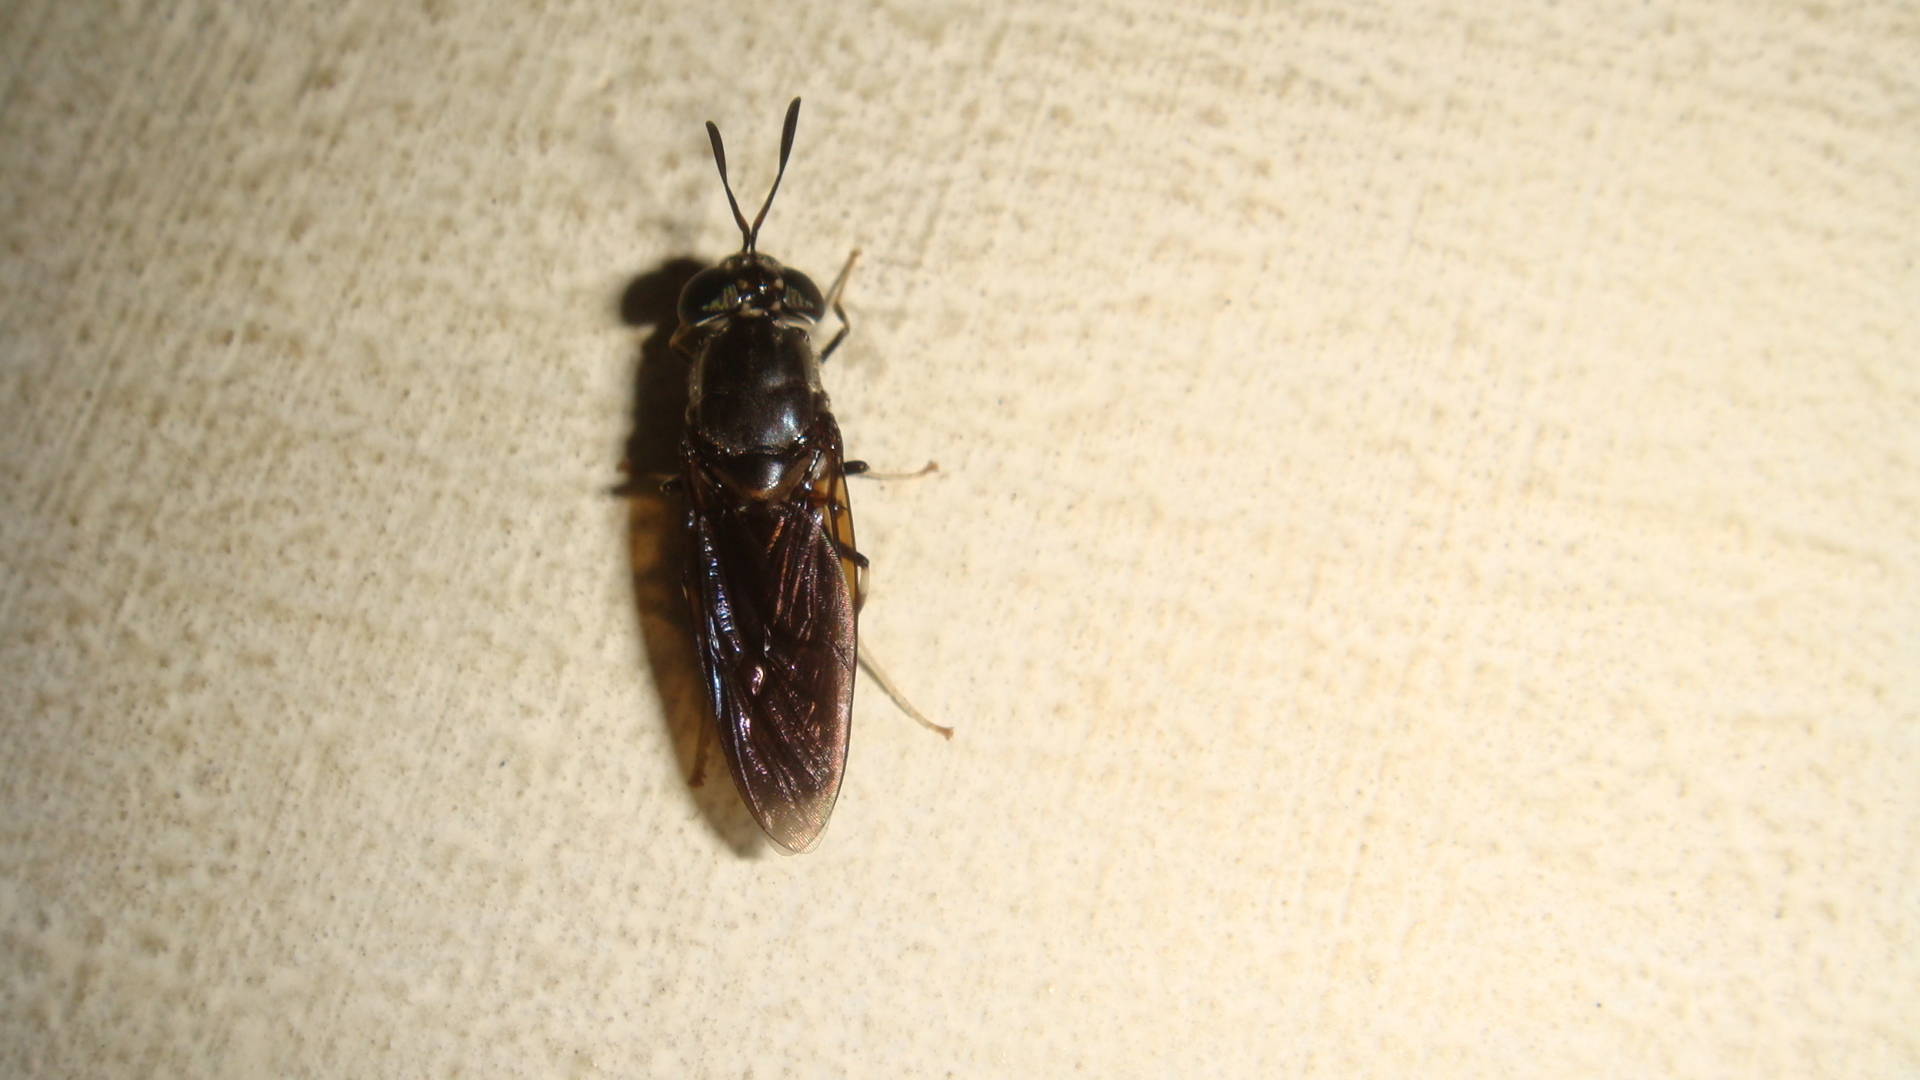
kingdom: Animalia
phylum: Arthropoda
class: Insecta
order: Diptera
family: Stratiomyidae
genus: Hermetia
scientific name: Hermetia illucens
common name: Black soldier fly
